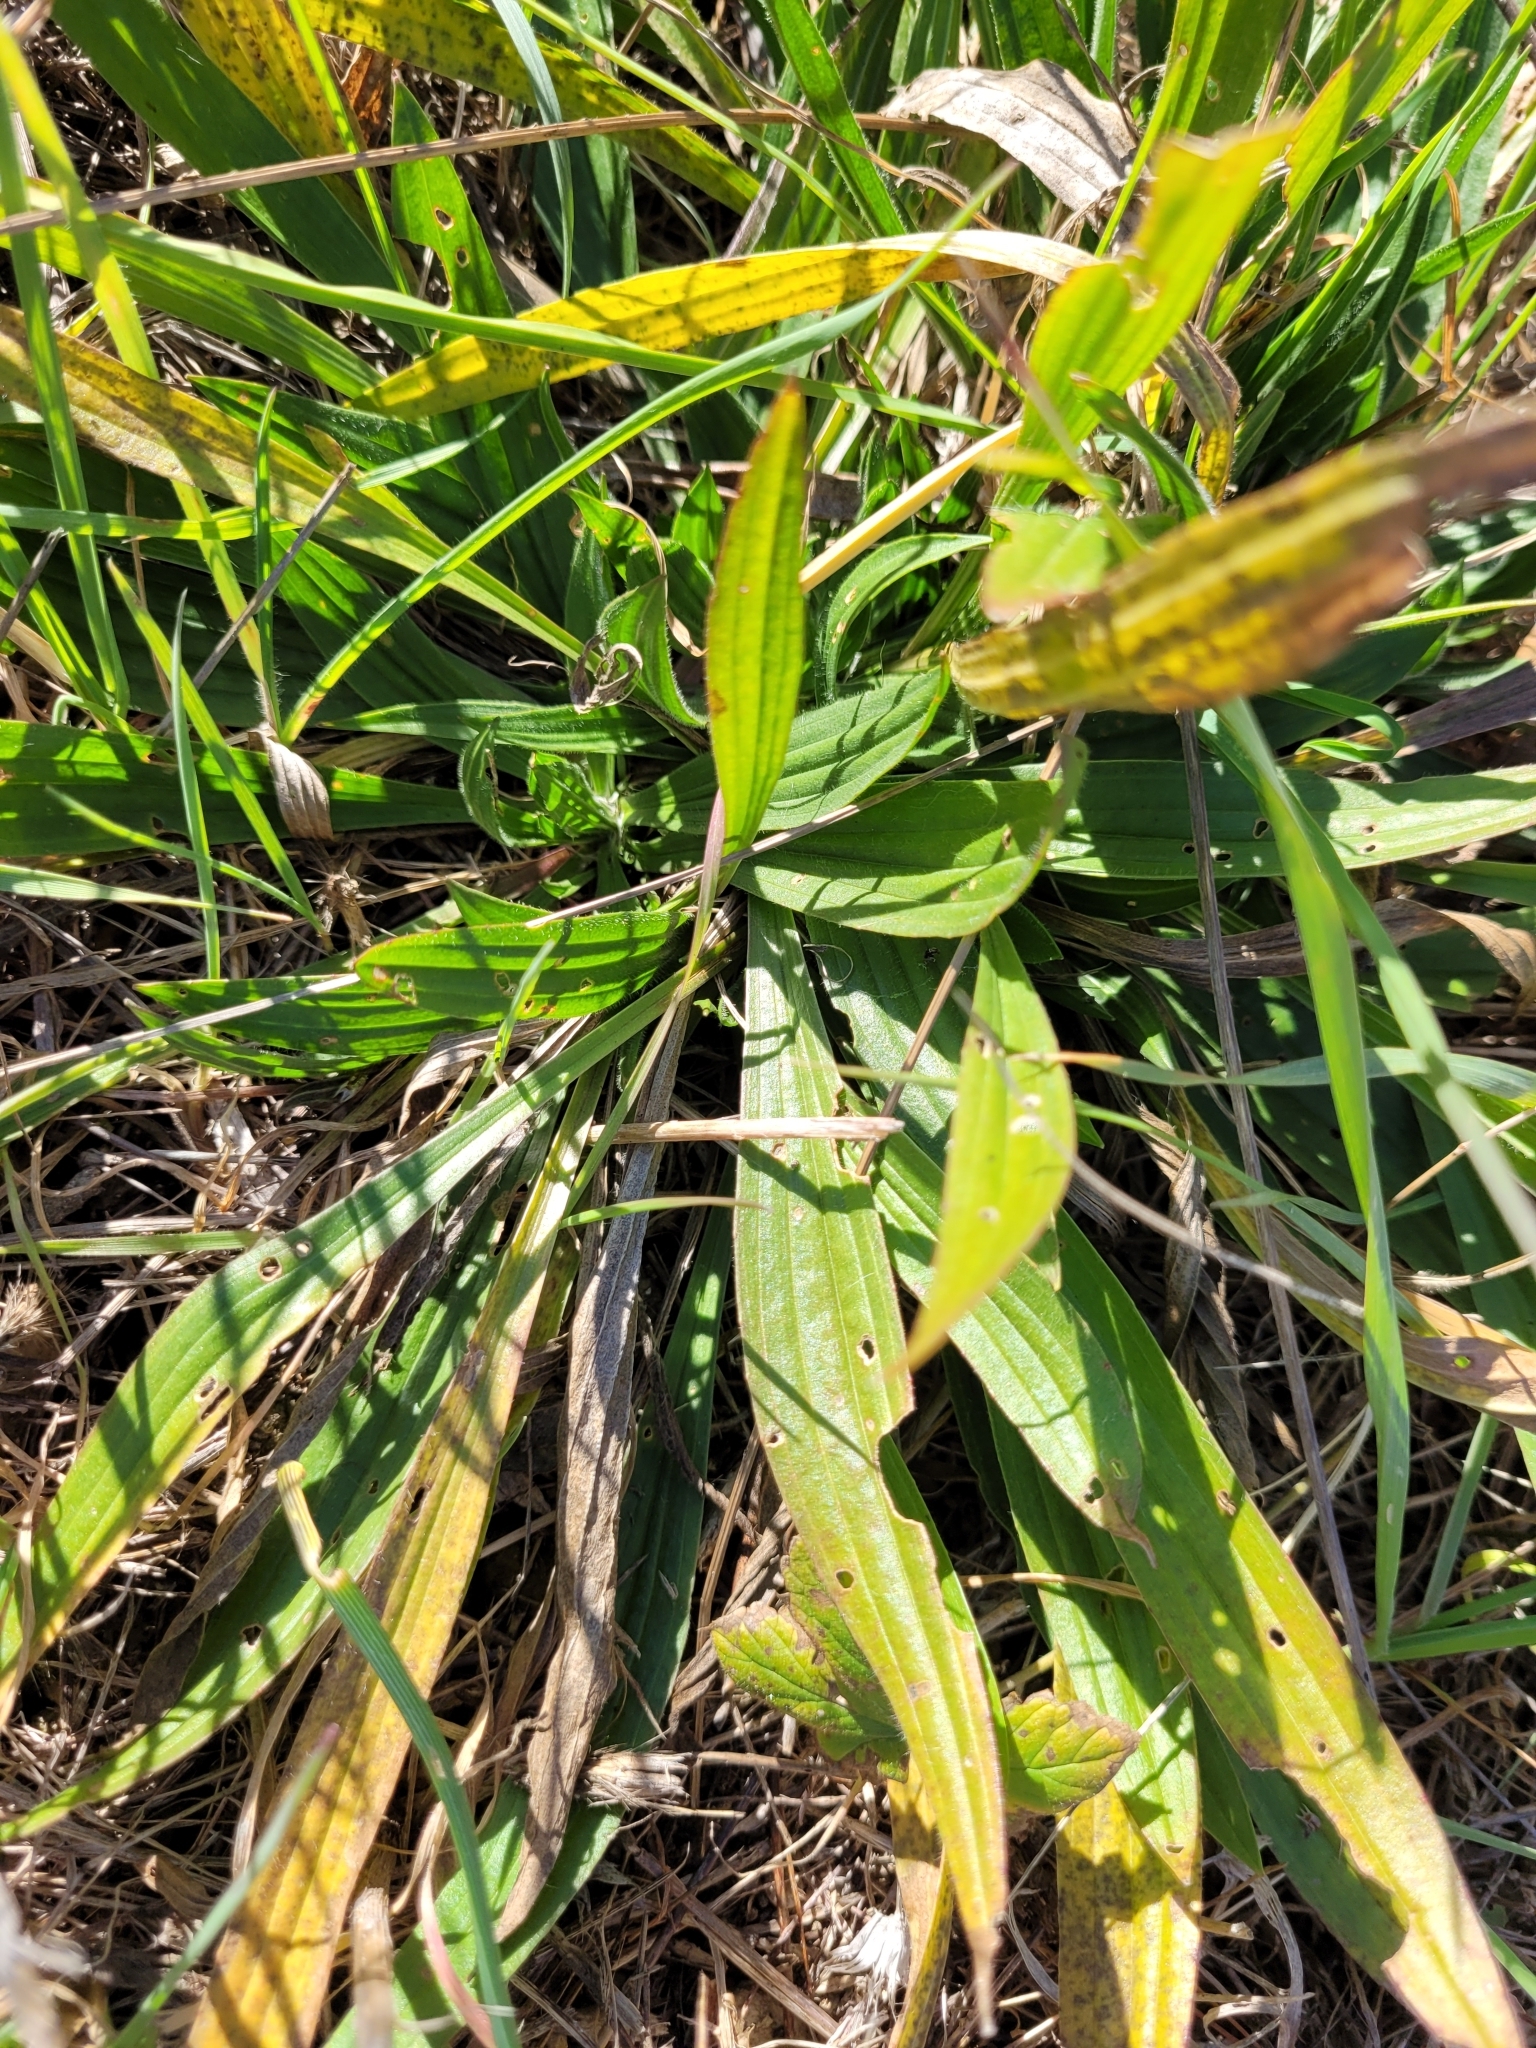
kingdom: Plantae
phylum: Tracheophyta
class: Magnoliopsida
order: Lamiales
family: Plantaginaceae
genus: Plantago
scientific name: Plantago lanceolata
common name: Ribwort plantain
